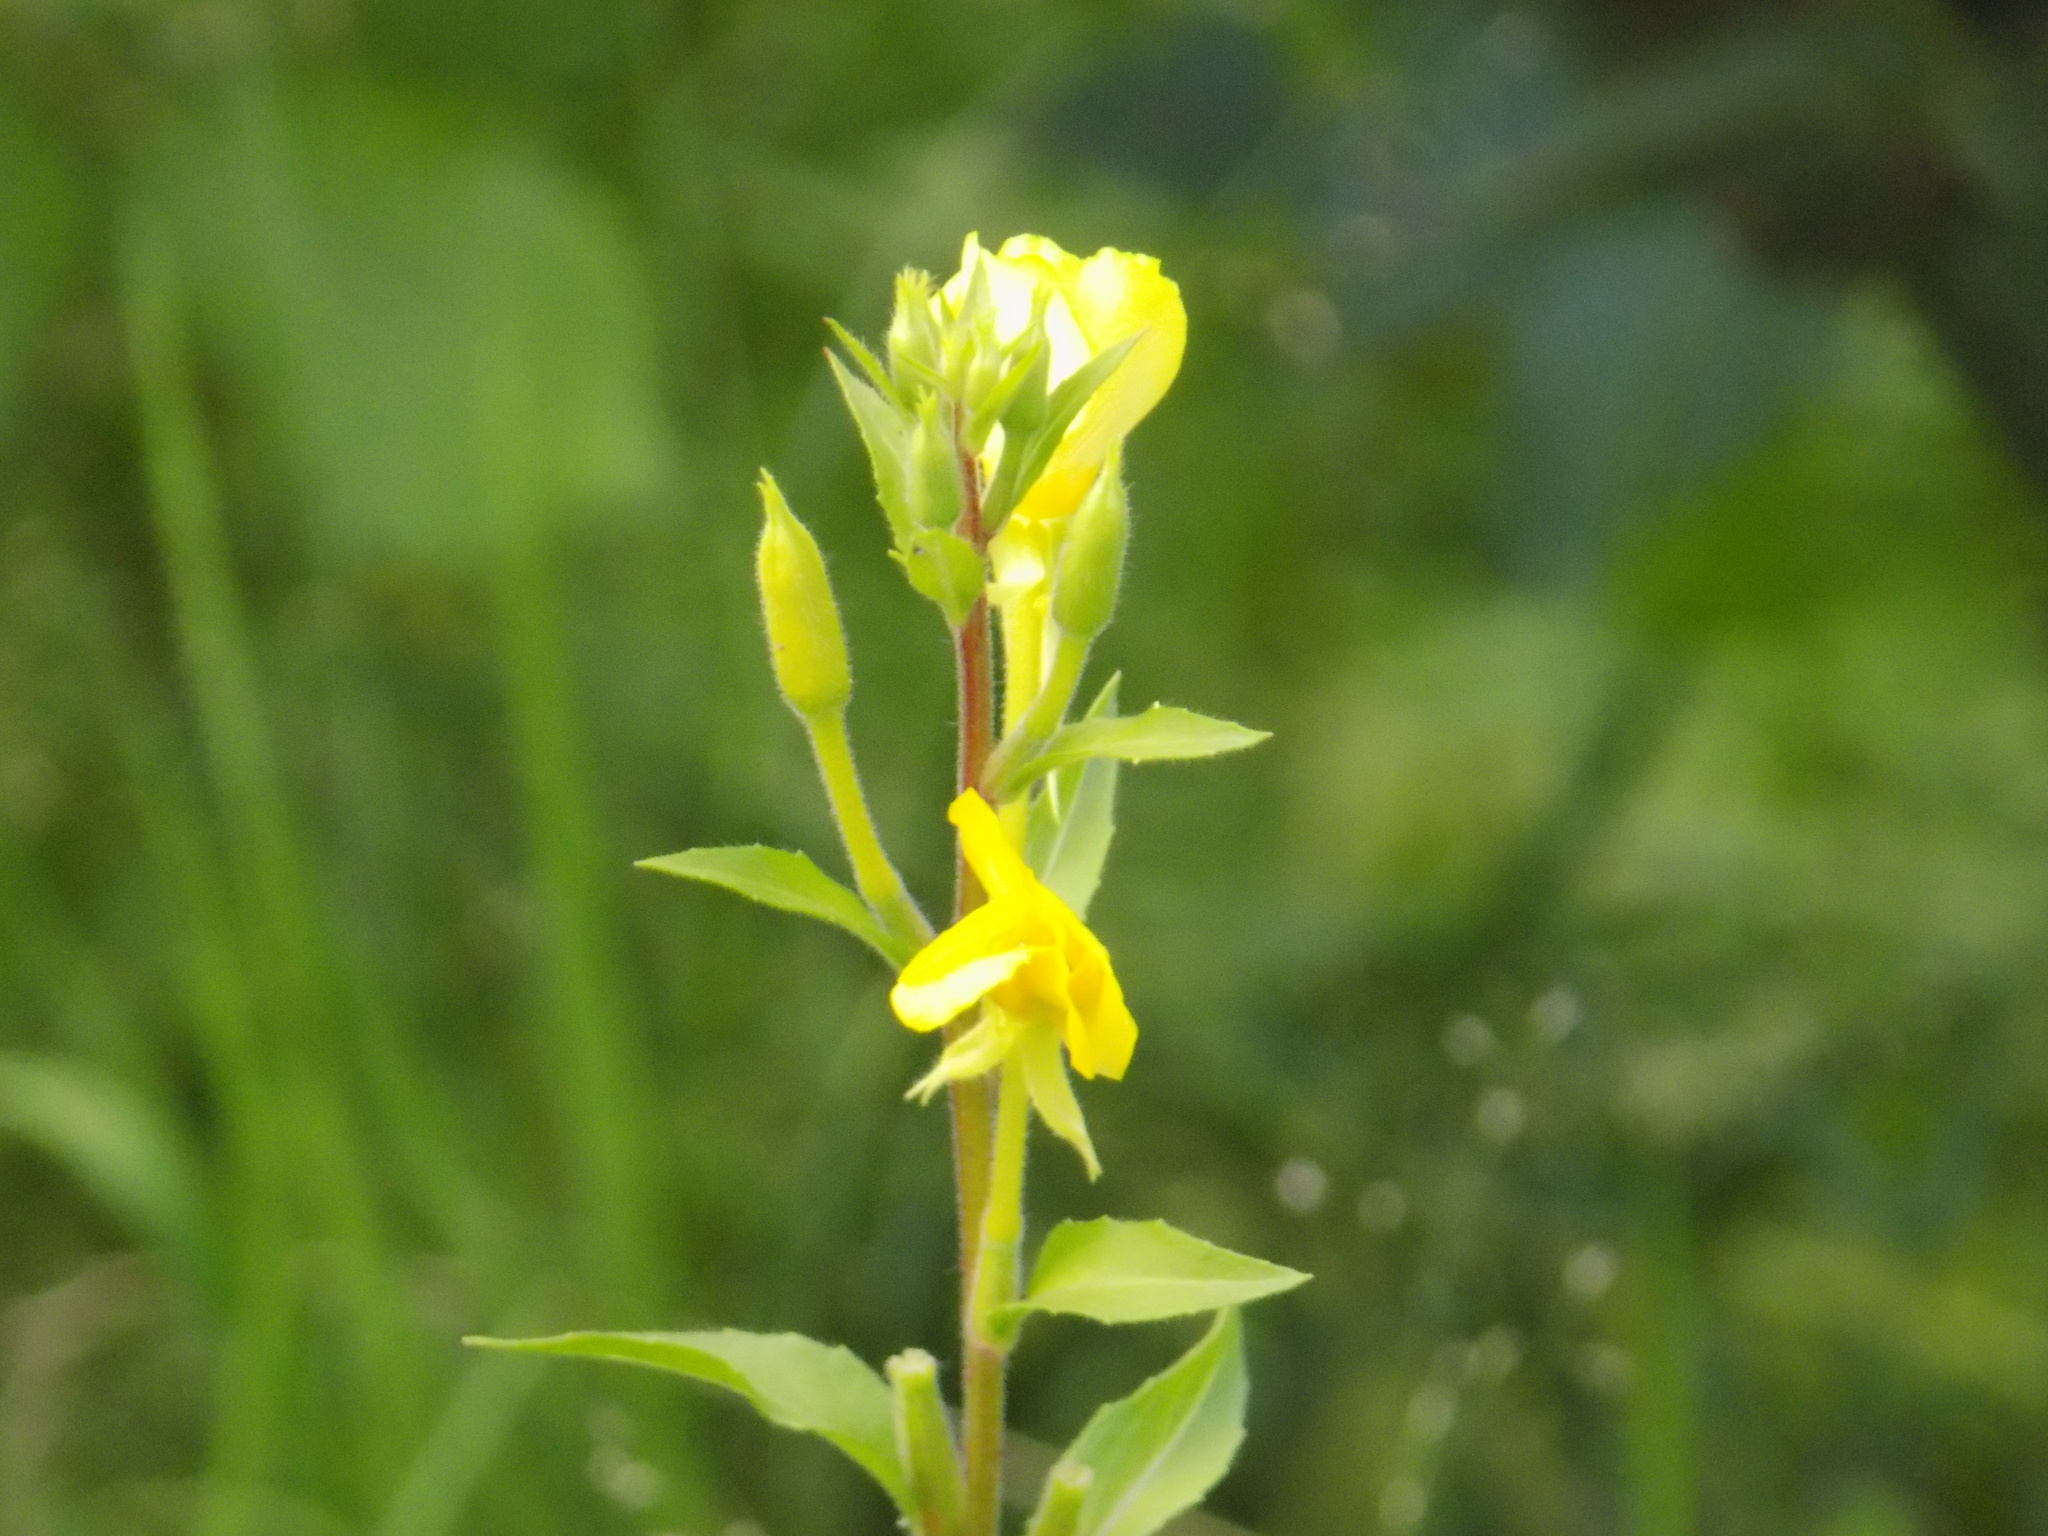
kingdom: Plantae
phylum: Tracheophyta
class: Magnoliopsida
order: Myrtales
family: Onagraceae
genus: Oenothera
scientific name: Oenothera rubricaulis
